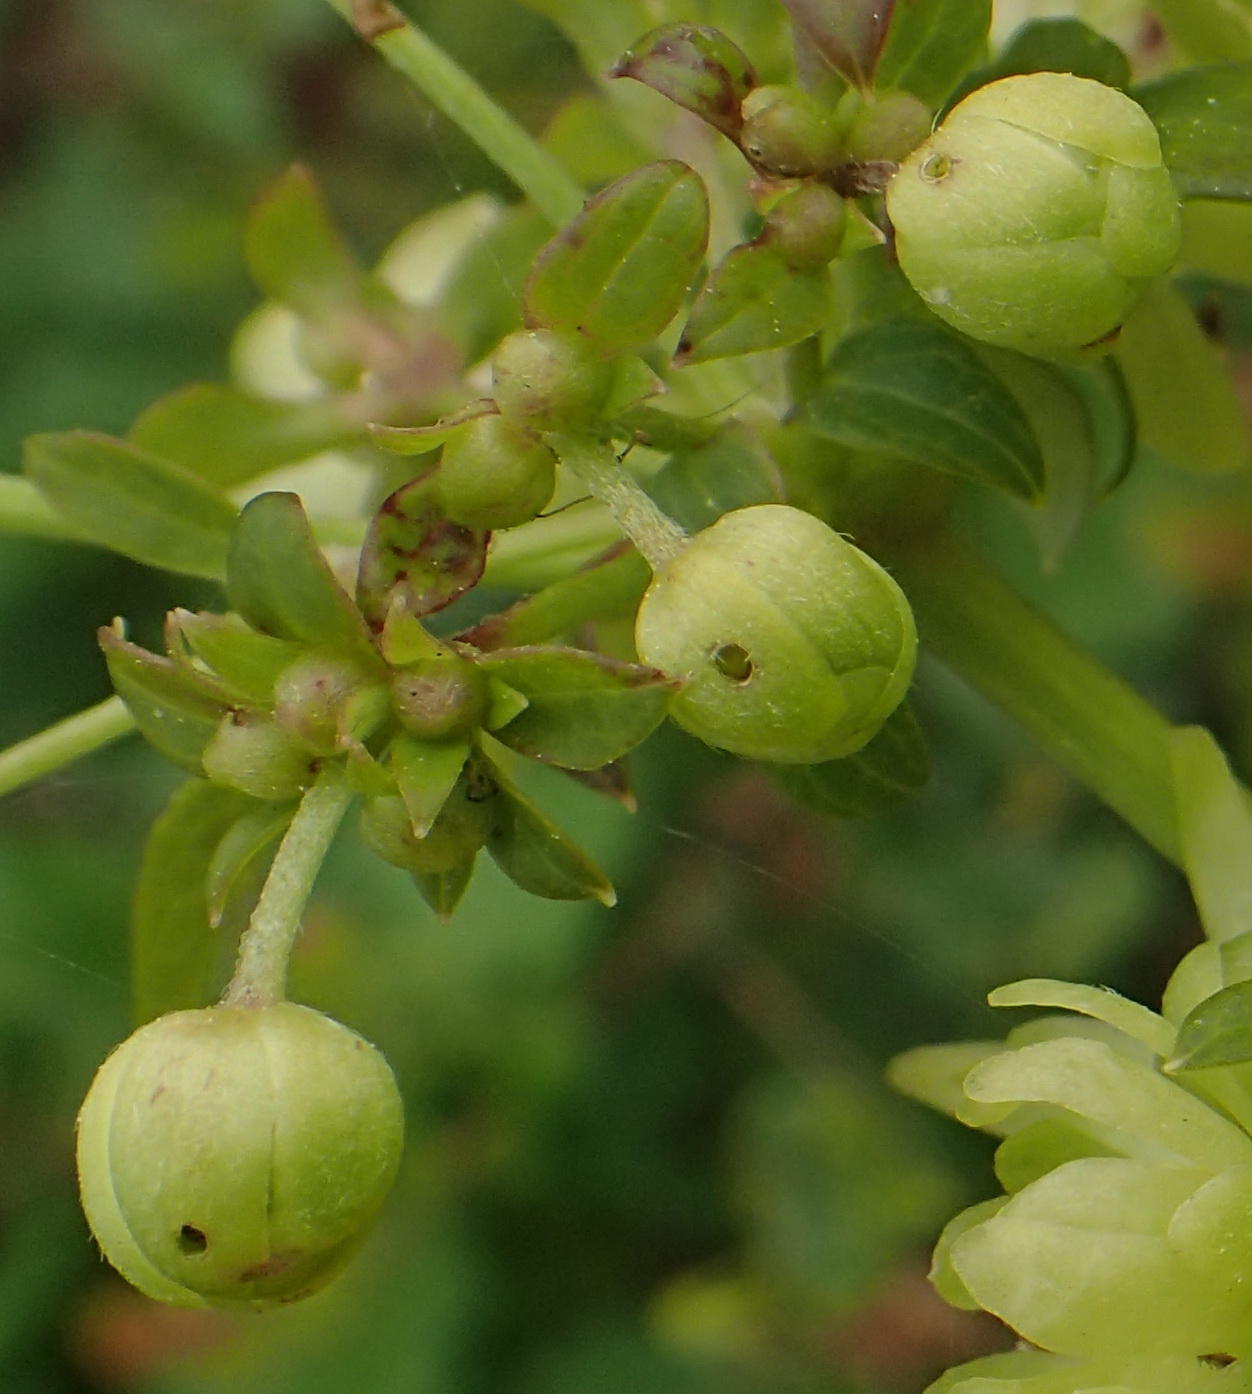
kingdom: Plantae
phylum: Tracheophyta
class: Magnoliopsida
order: Ranunculales
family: Ranunculaceae
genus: Knowltonia
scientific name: Knowltonia vesicatoria
